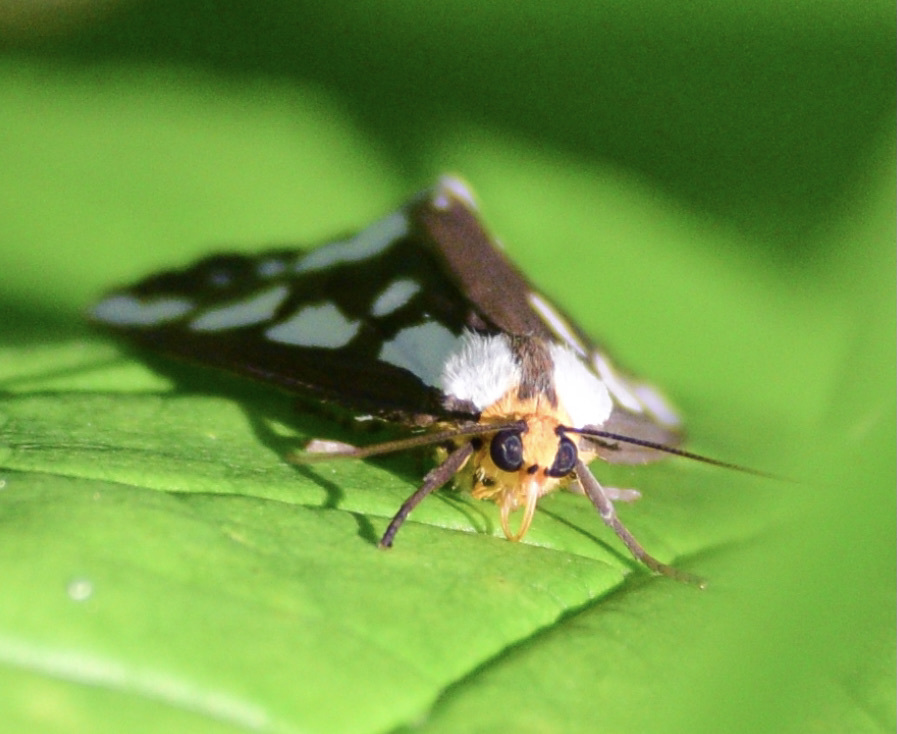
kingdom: Animalia
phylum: Arthropoda
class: Insecta
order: Lepidoptera
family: Erebidae
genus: Haploa
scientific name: Haploa confusa
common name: Confused haploa moth
